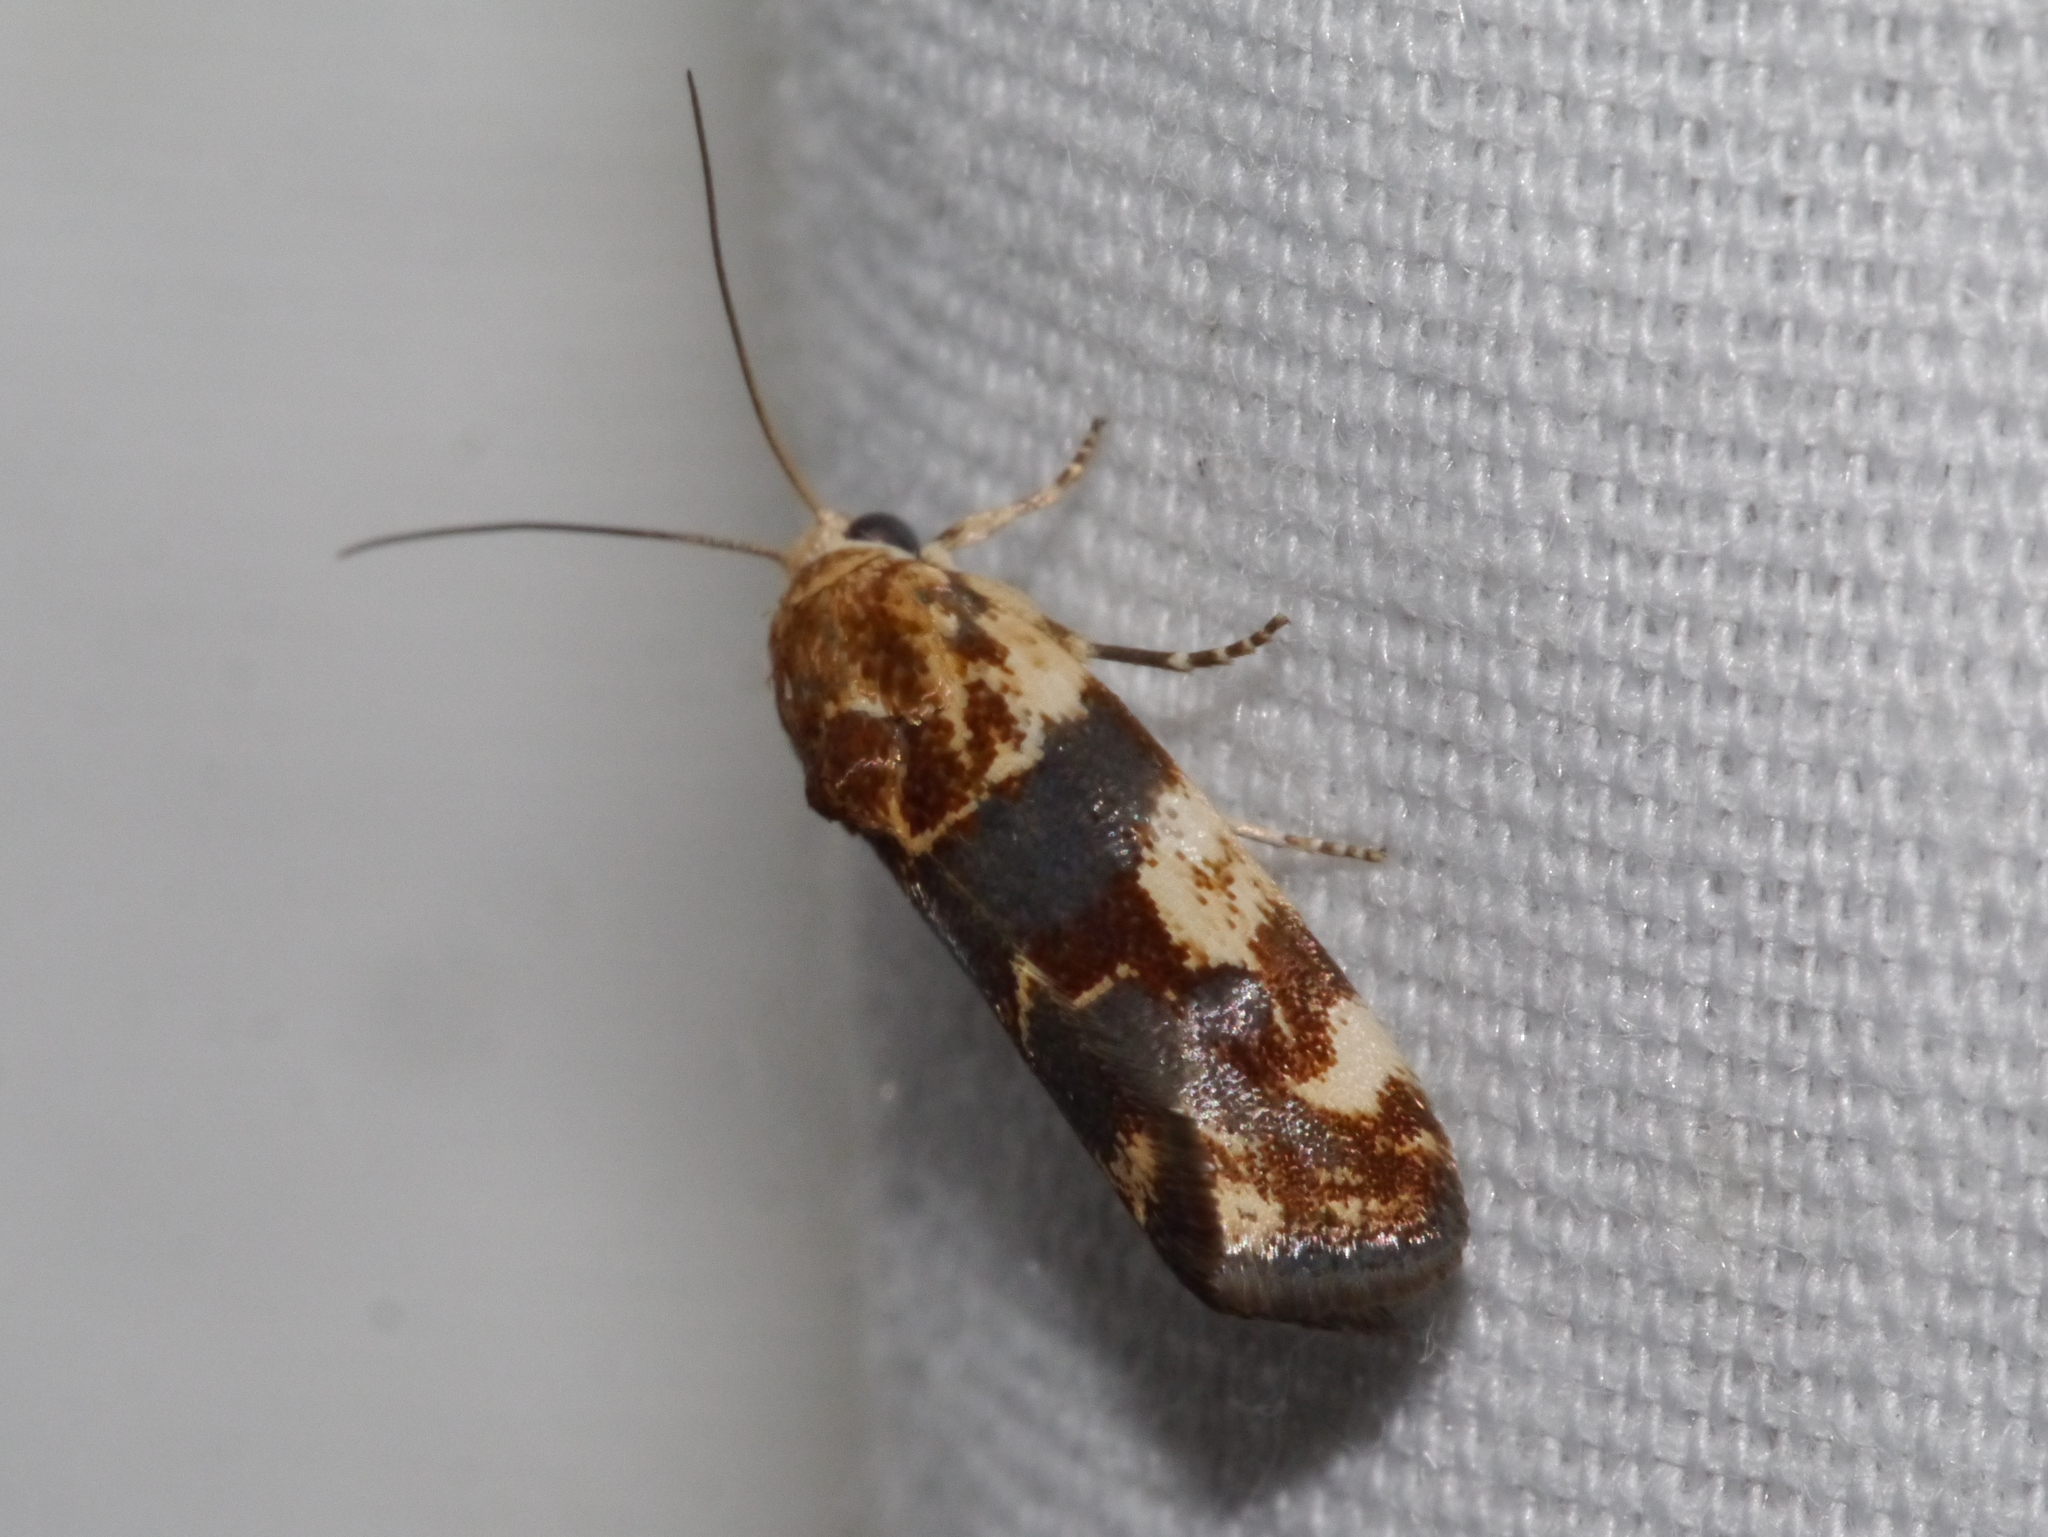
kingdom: Animalia
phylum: Arthropoda
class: Insecta
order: Lepidoptera
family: Noctuidae
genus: Acontia
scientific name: Acontia obatra
